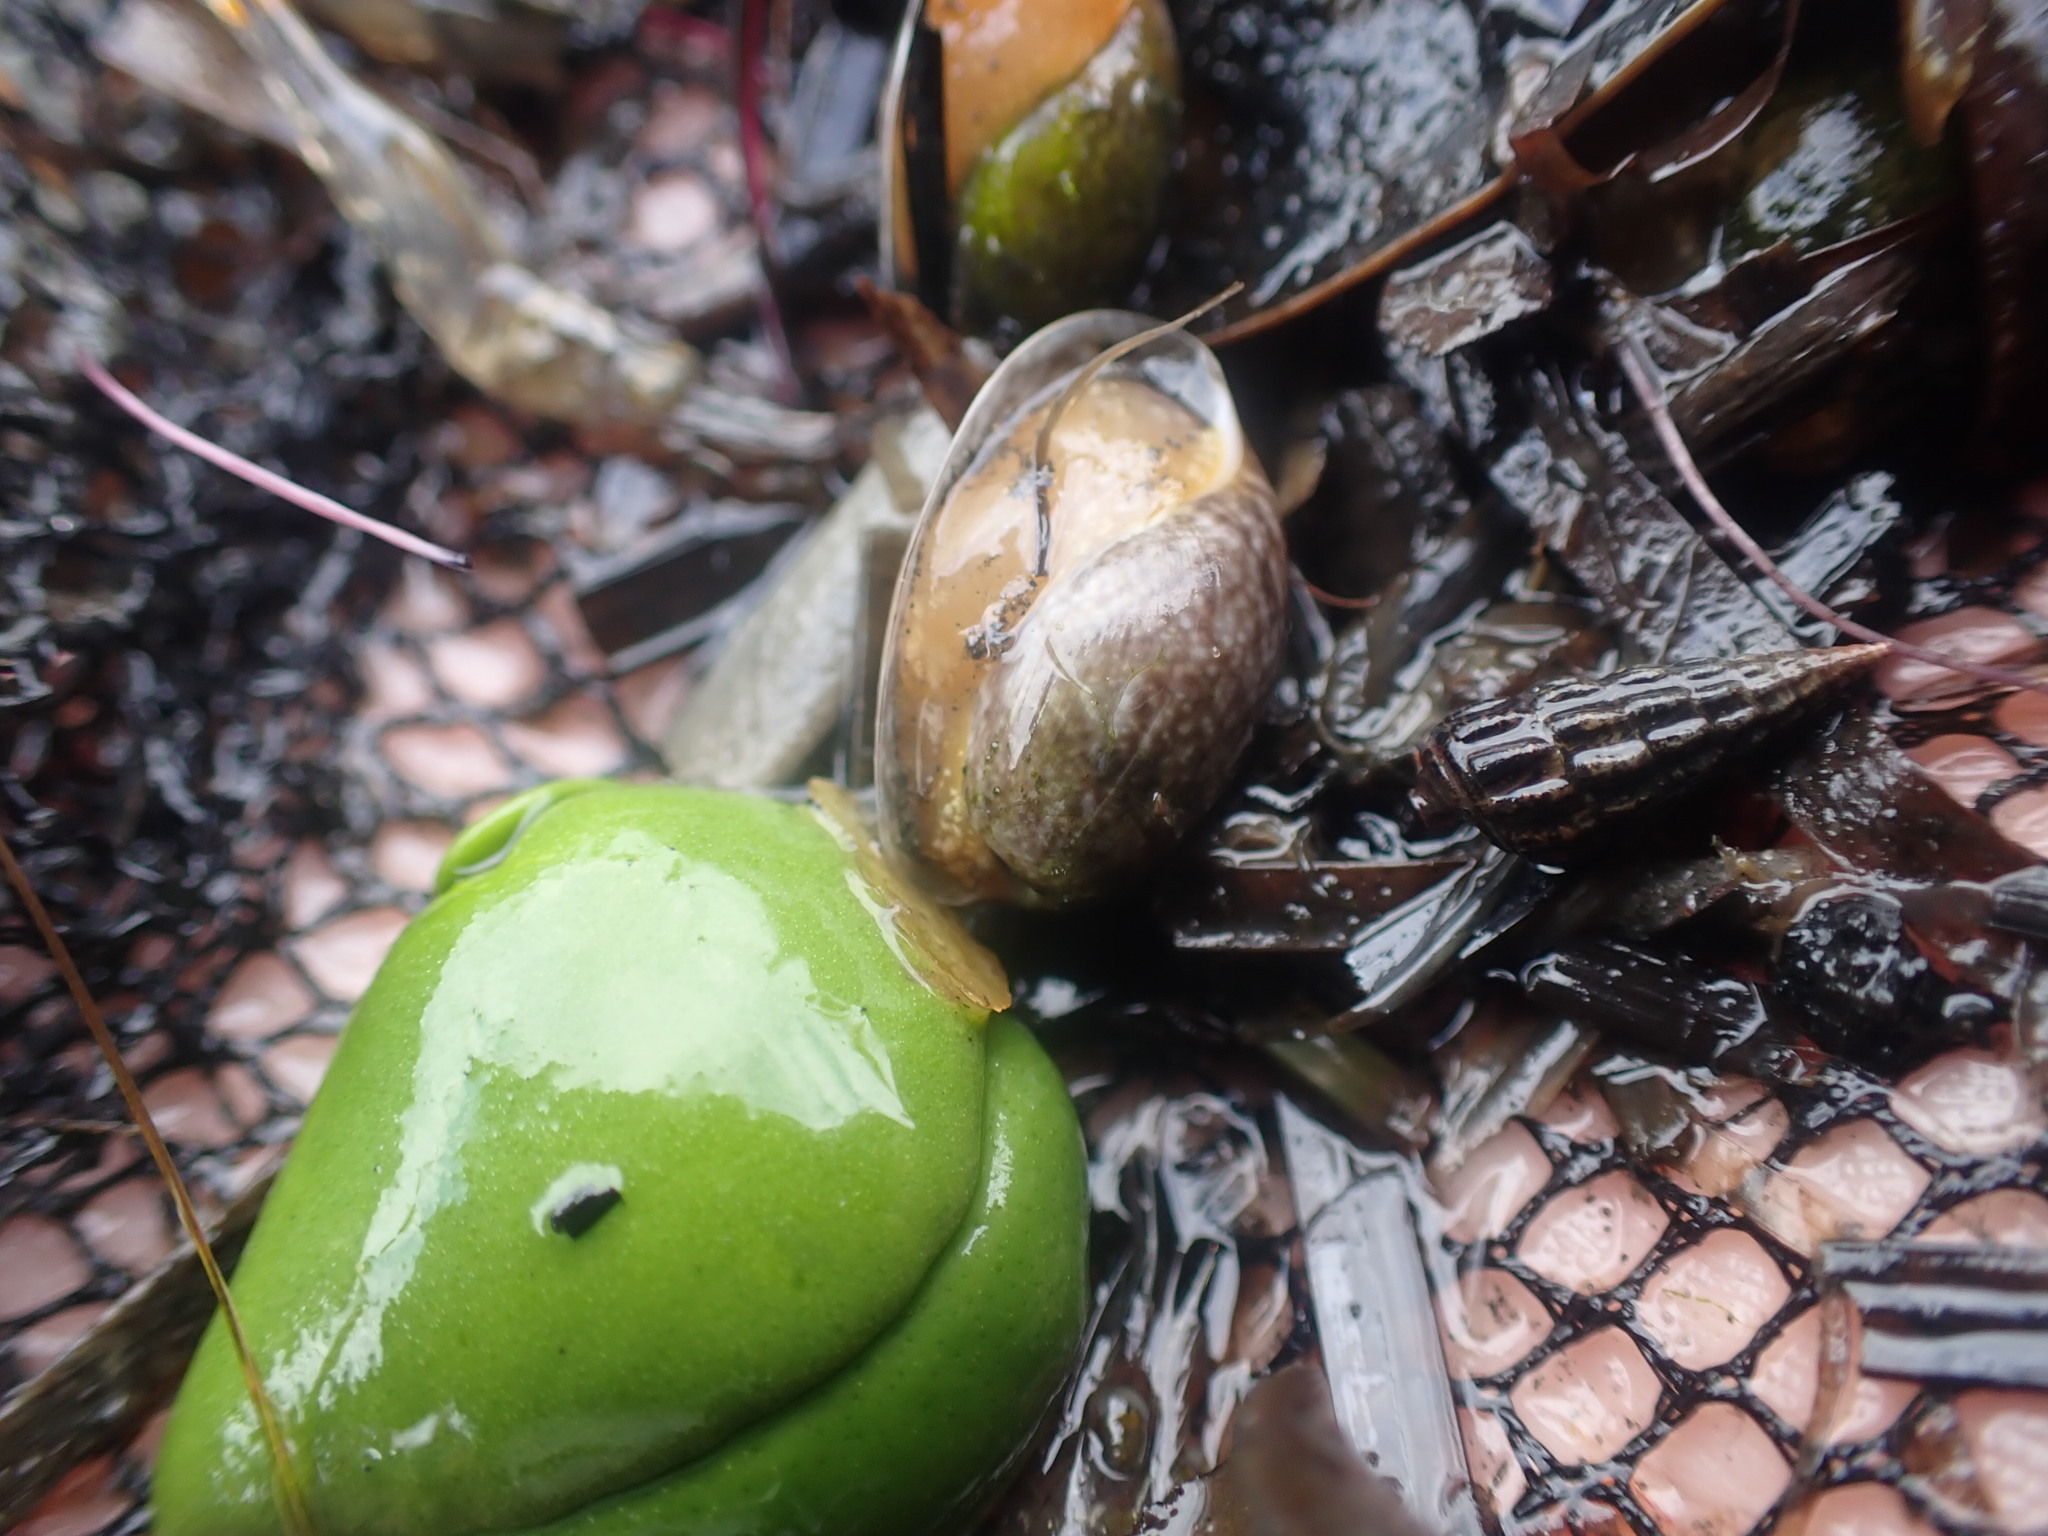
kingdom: Animalia
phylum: Mollusca
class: Gastropoda
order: Cephalaspidea
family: Bullidae
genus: Bulla
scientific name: Bulla quoyii
